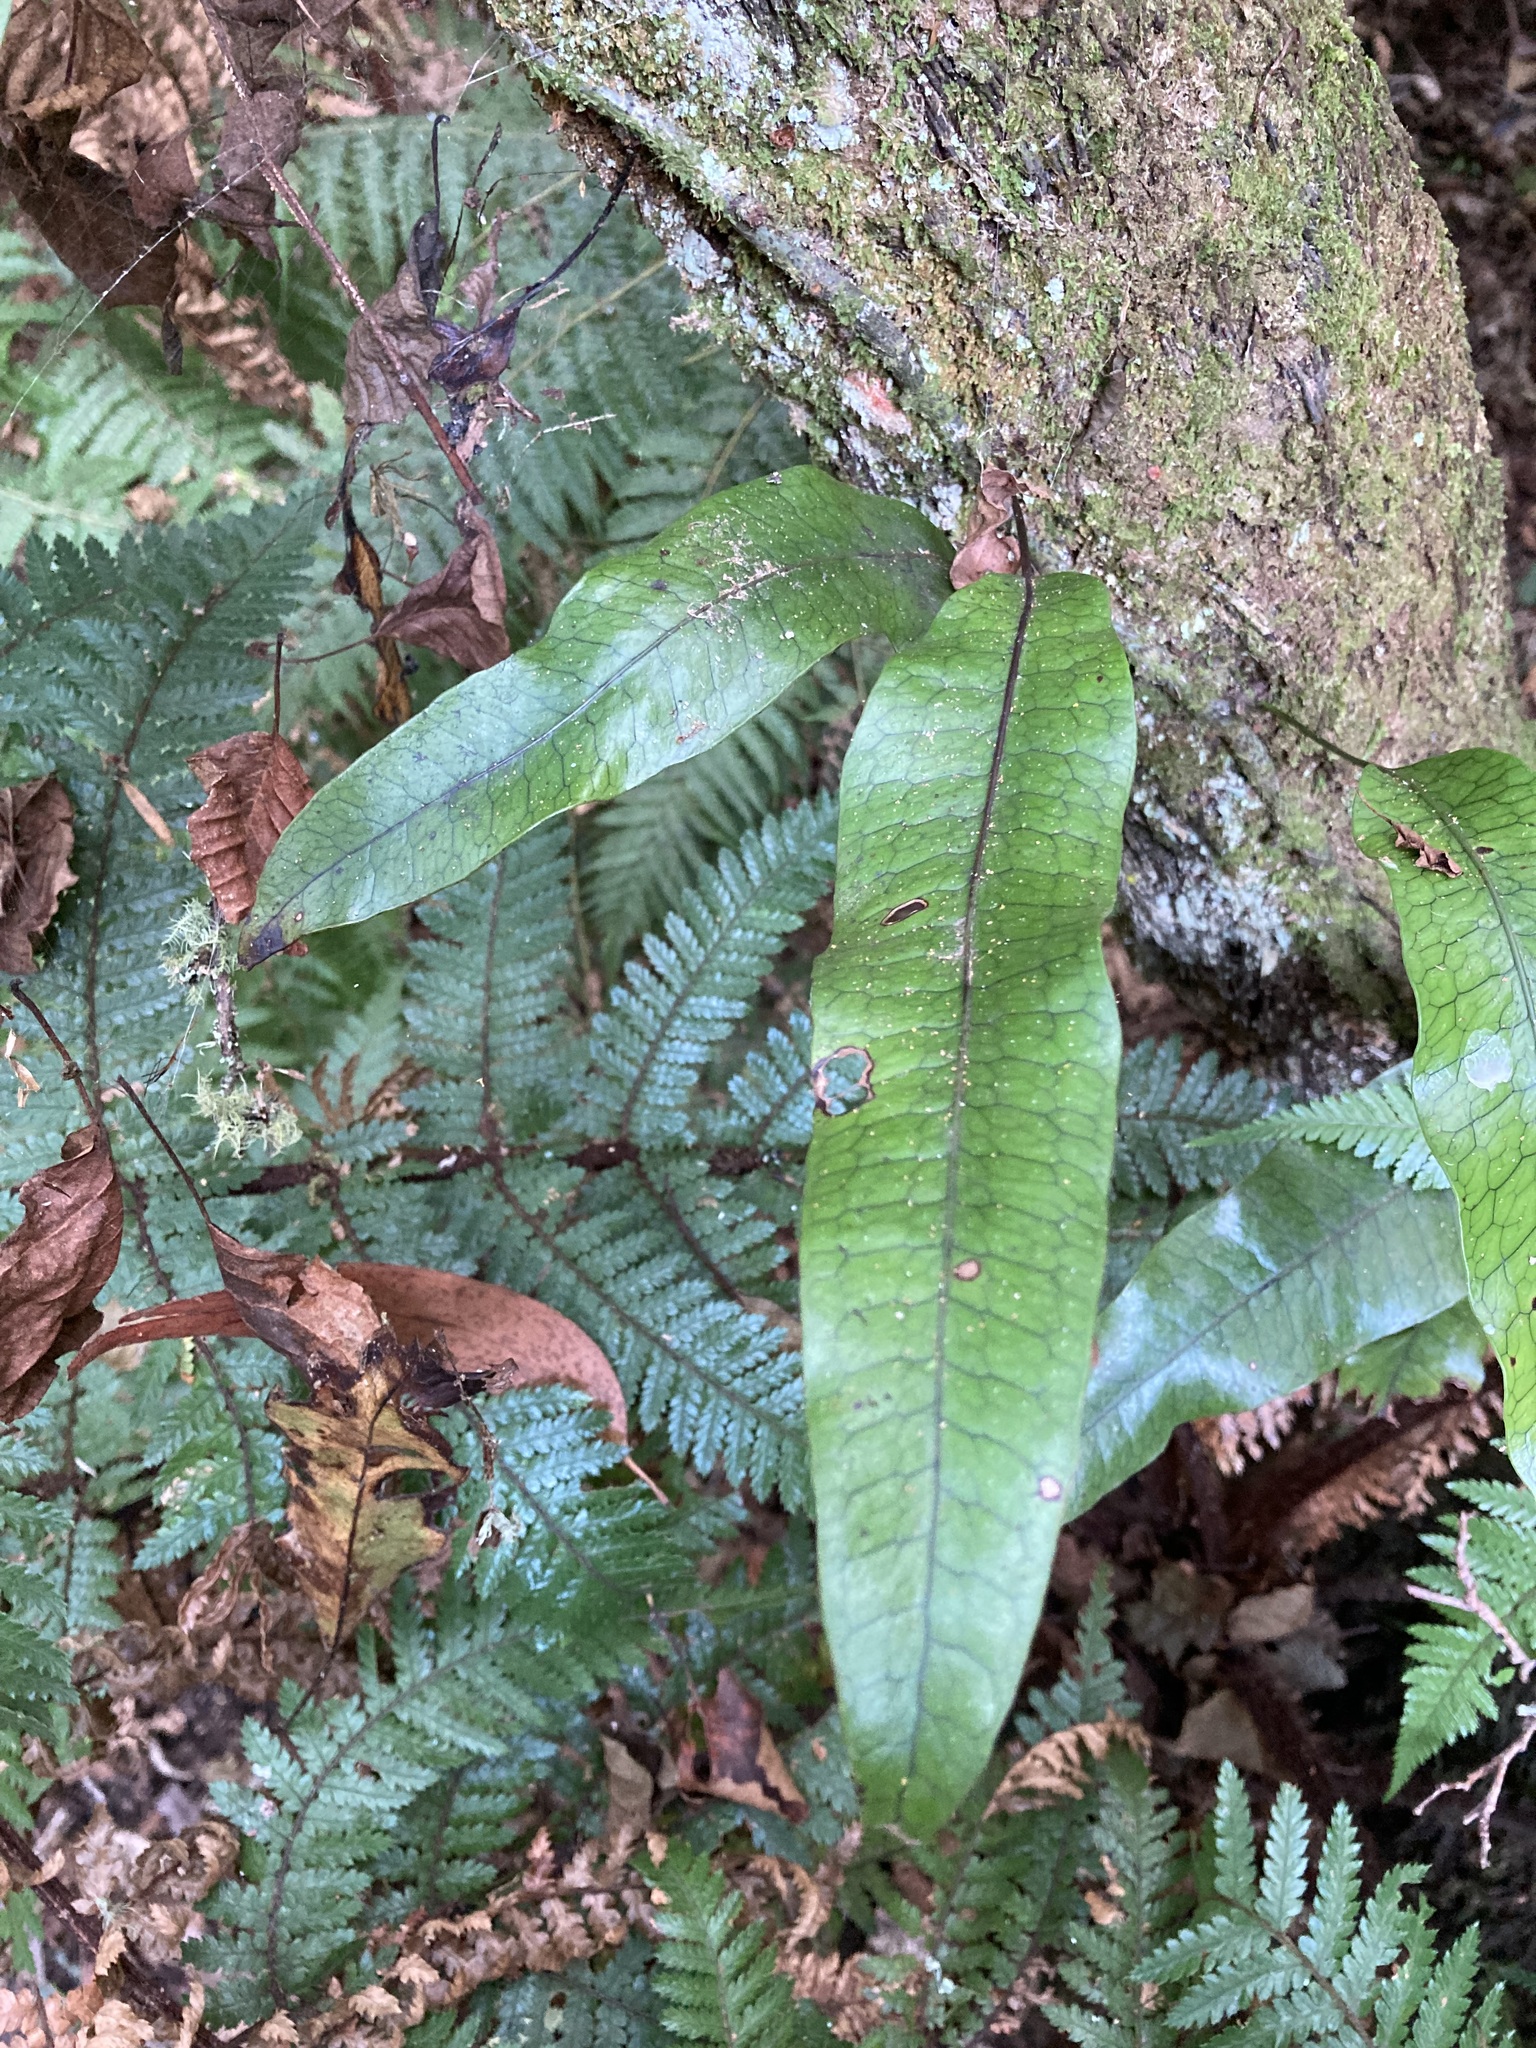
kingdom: Plantae
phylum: Tracheophyta
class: Polypodiopsida
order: Polypodiales
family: Polypodiaceae
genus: Lecanopteris
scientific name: Lecanopteris pustulata
